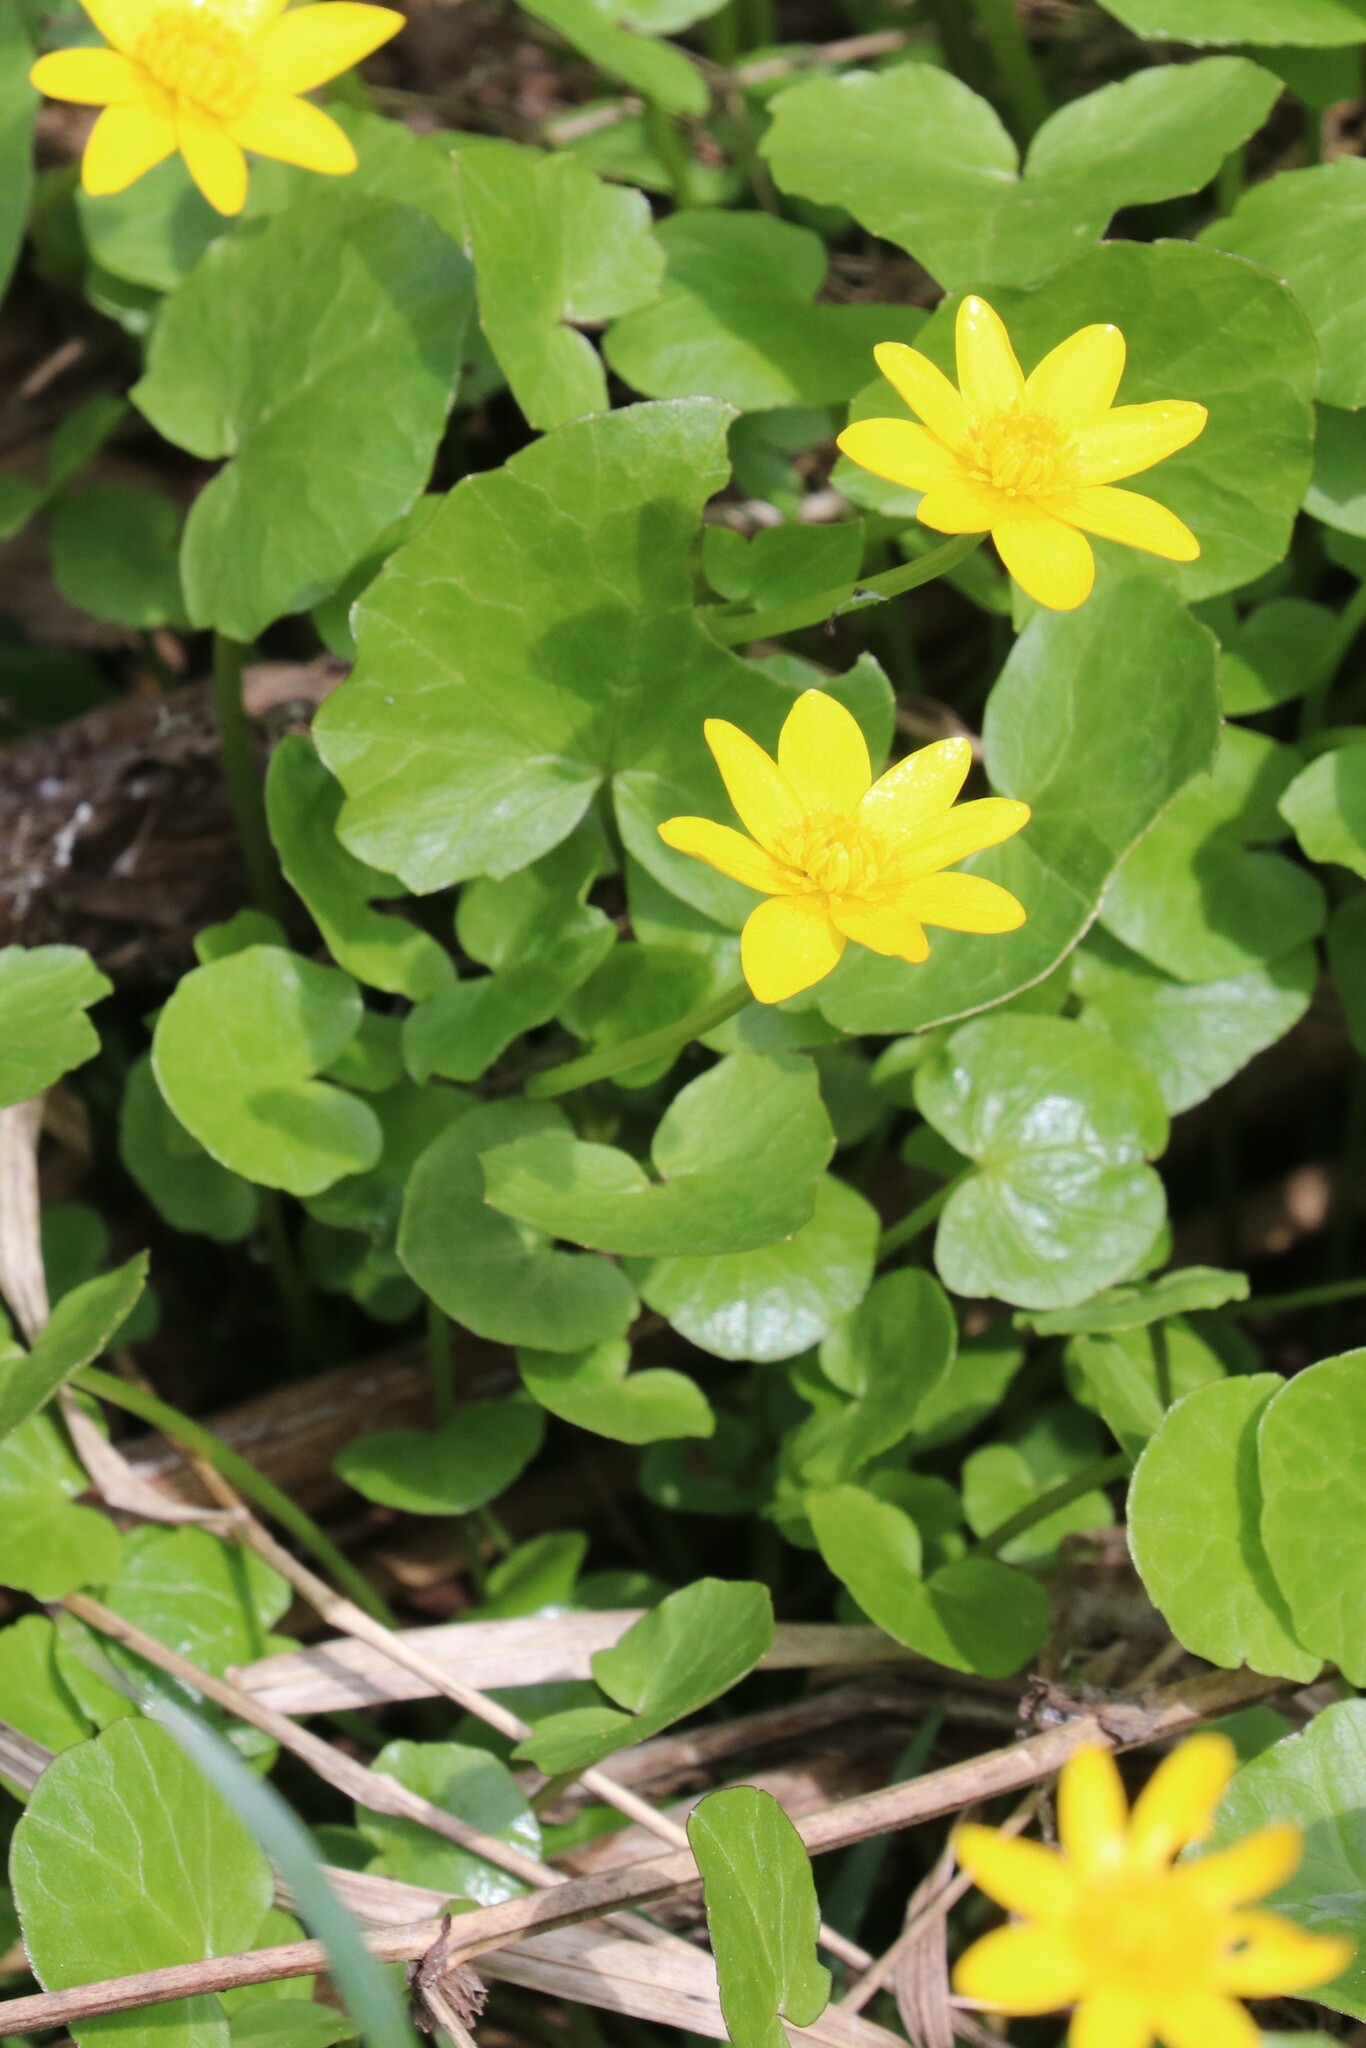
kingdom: Plantae
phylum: Tracheophyta
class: Magnoliopsida
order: Ranunculales
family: Ranunculaceae
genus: Ficaria
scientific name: Ficaria verna
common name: Lesser celandine
